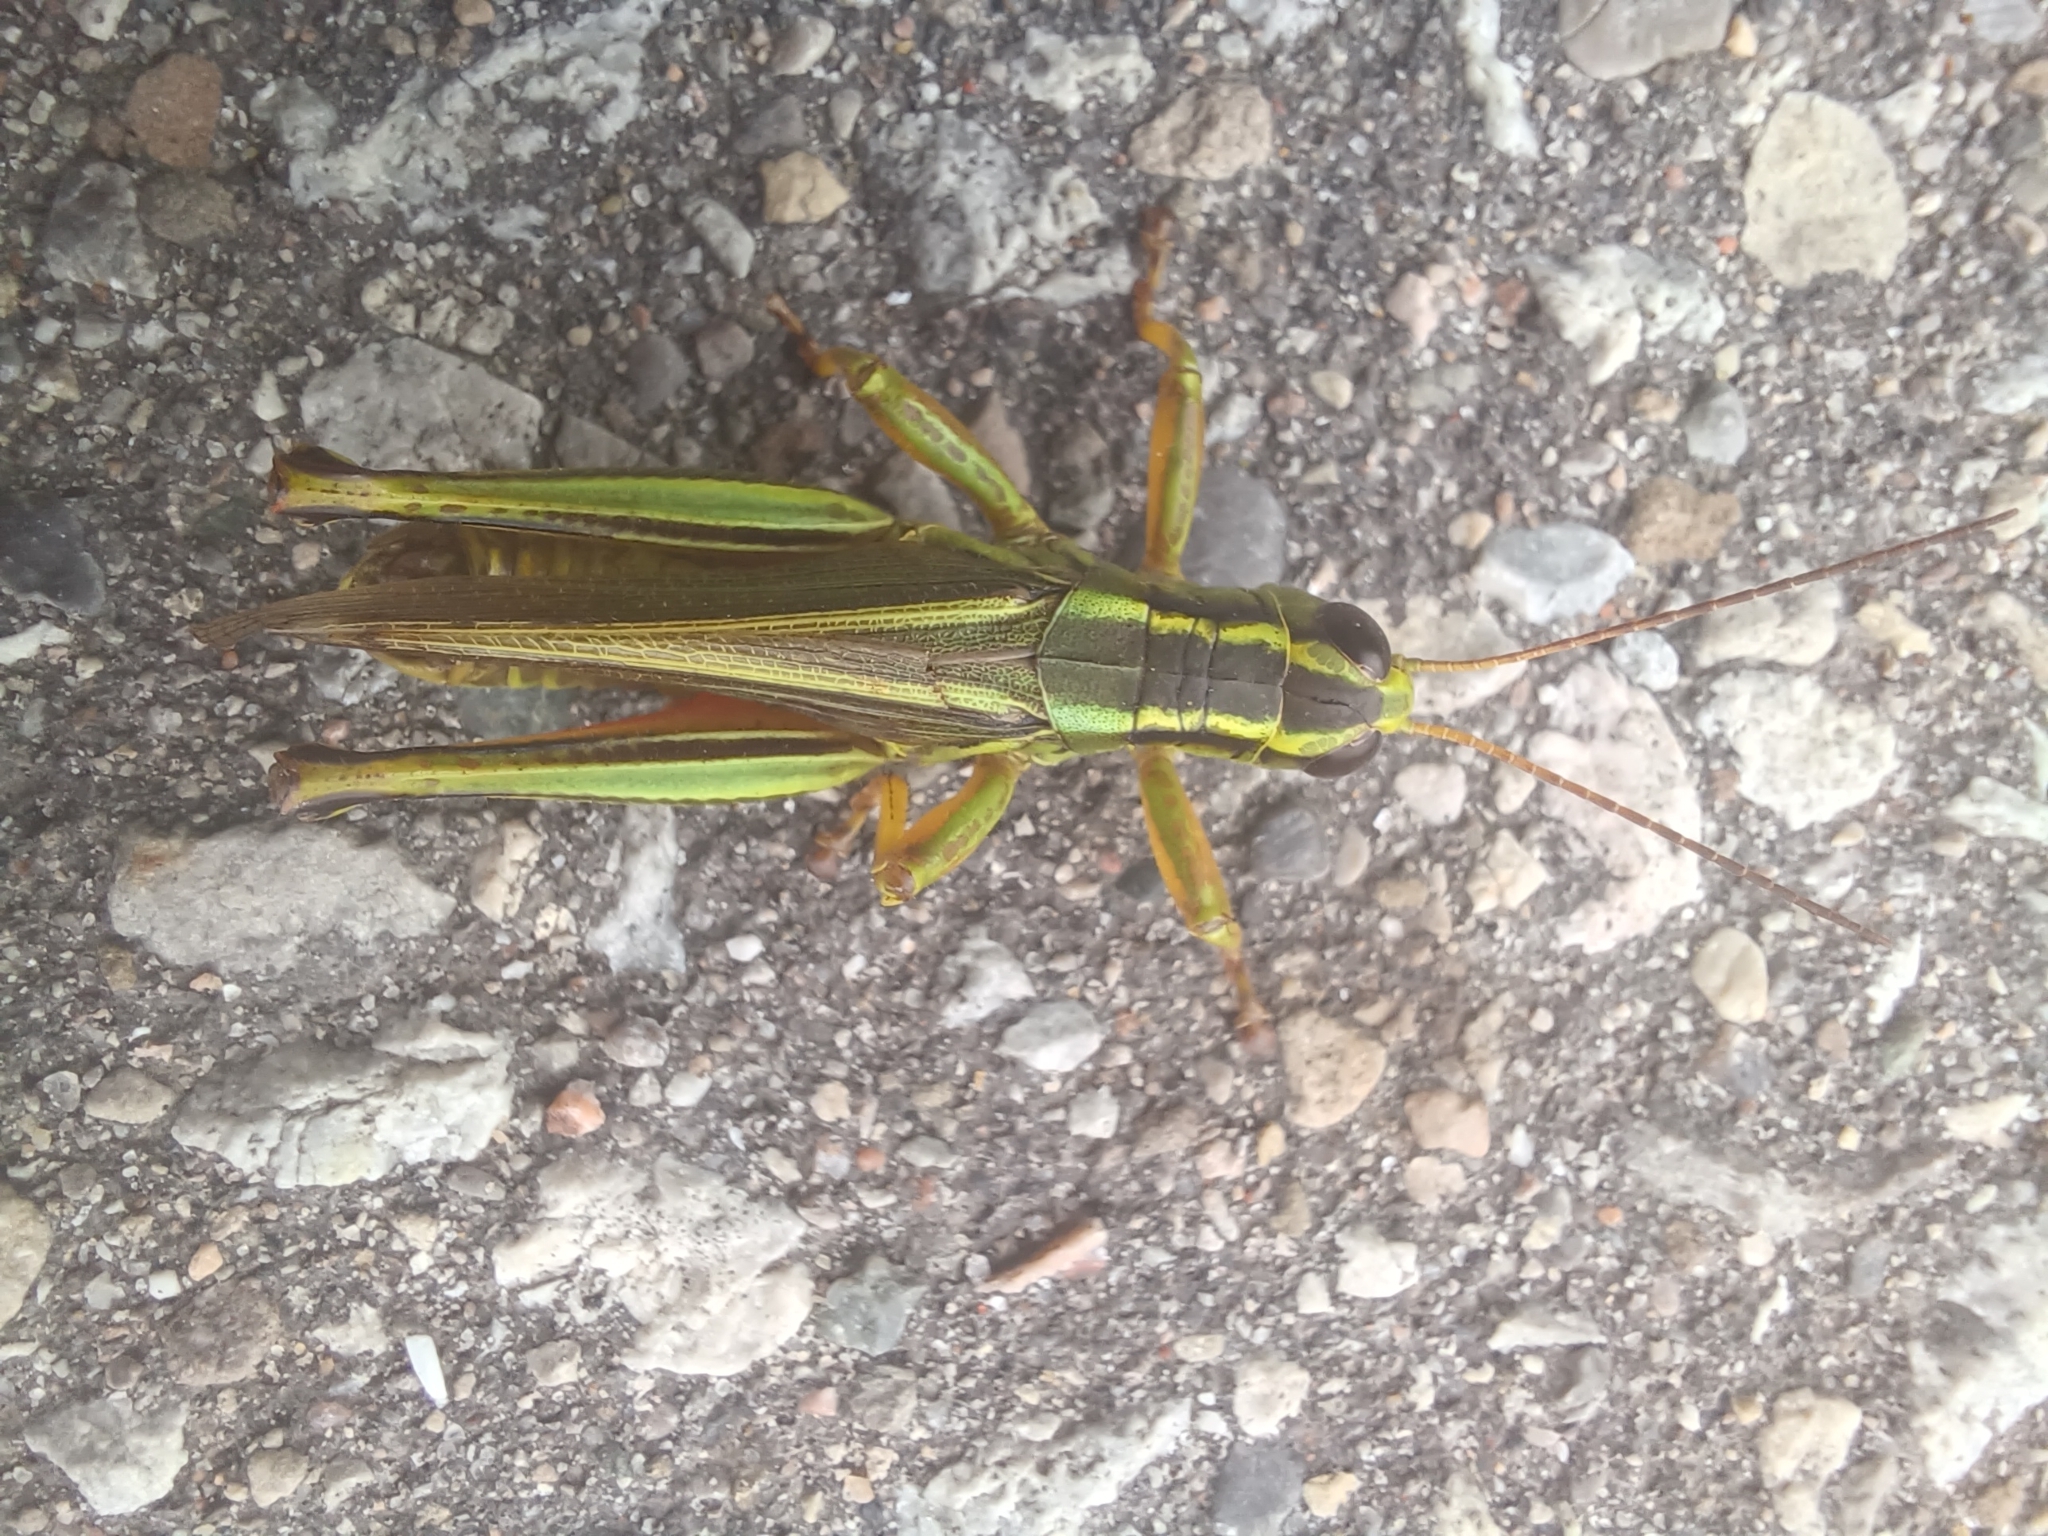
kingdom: Animalia
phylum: Arthropoda
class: Insecta
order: Orthoptera
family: Acrididae
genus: Melanoplus
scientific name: Melanoplus bivittatus
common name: Two-striped grasshopper
